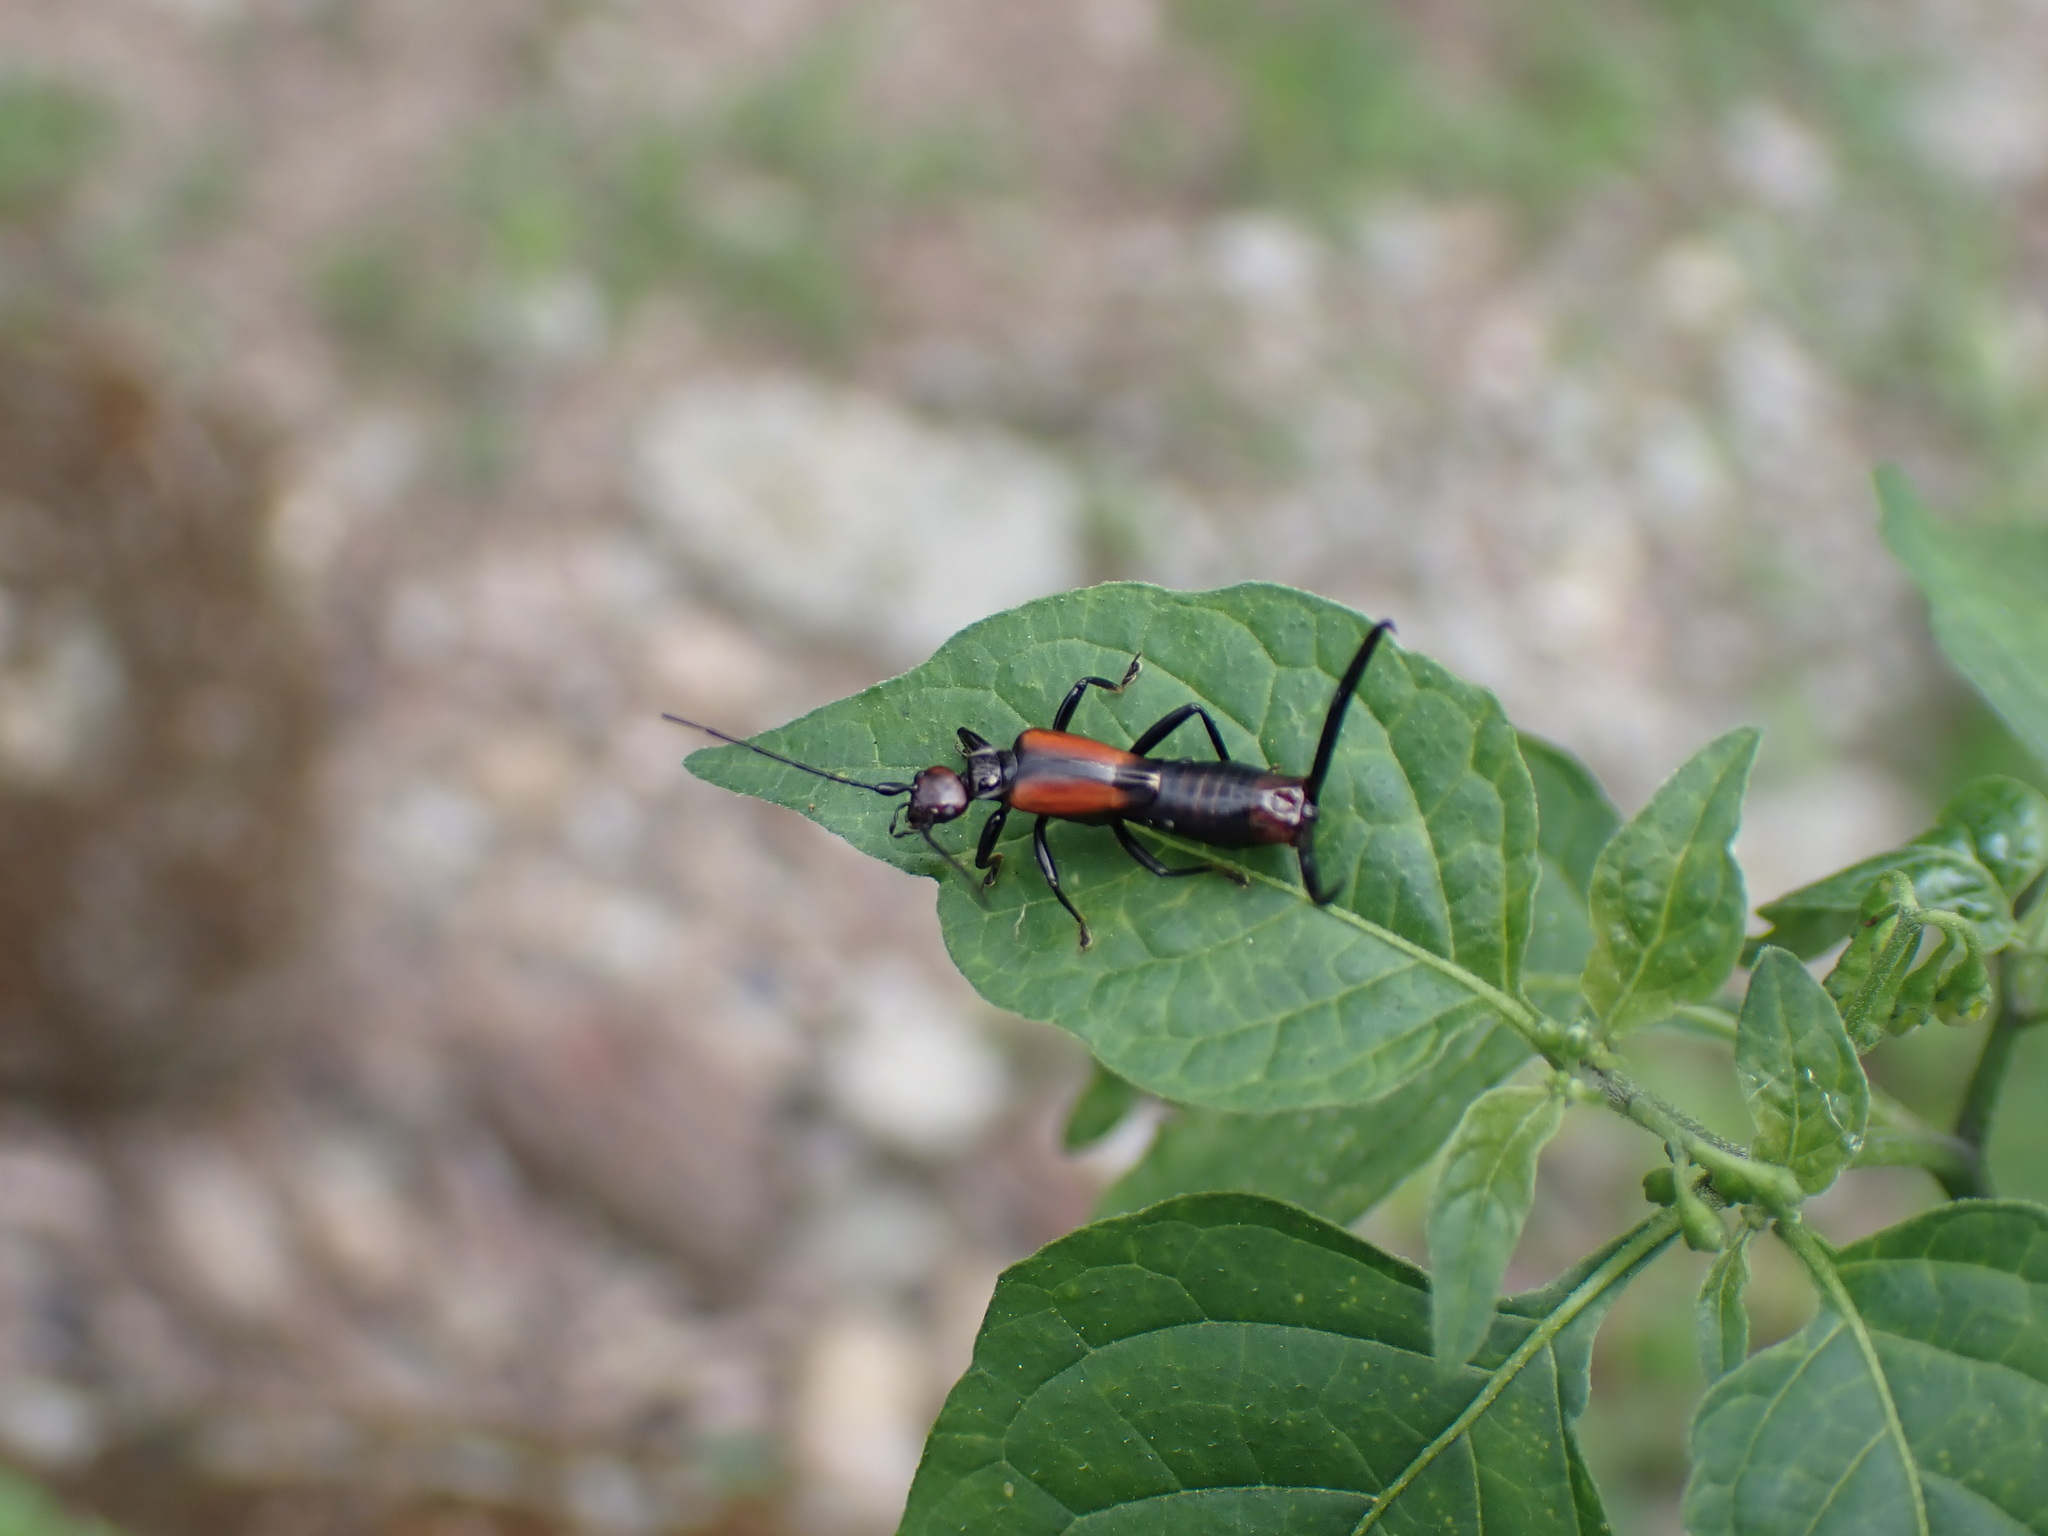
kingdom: Animalia
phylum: Arthropoda
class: Insecta
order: Dermaptera
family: Forficulidae
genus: Timomenus
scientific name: Timomenus komarovi
